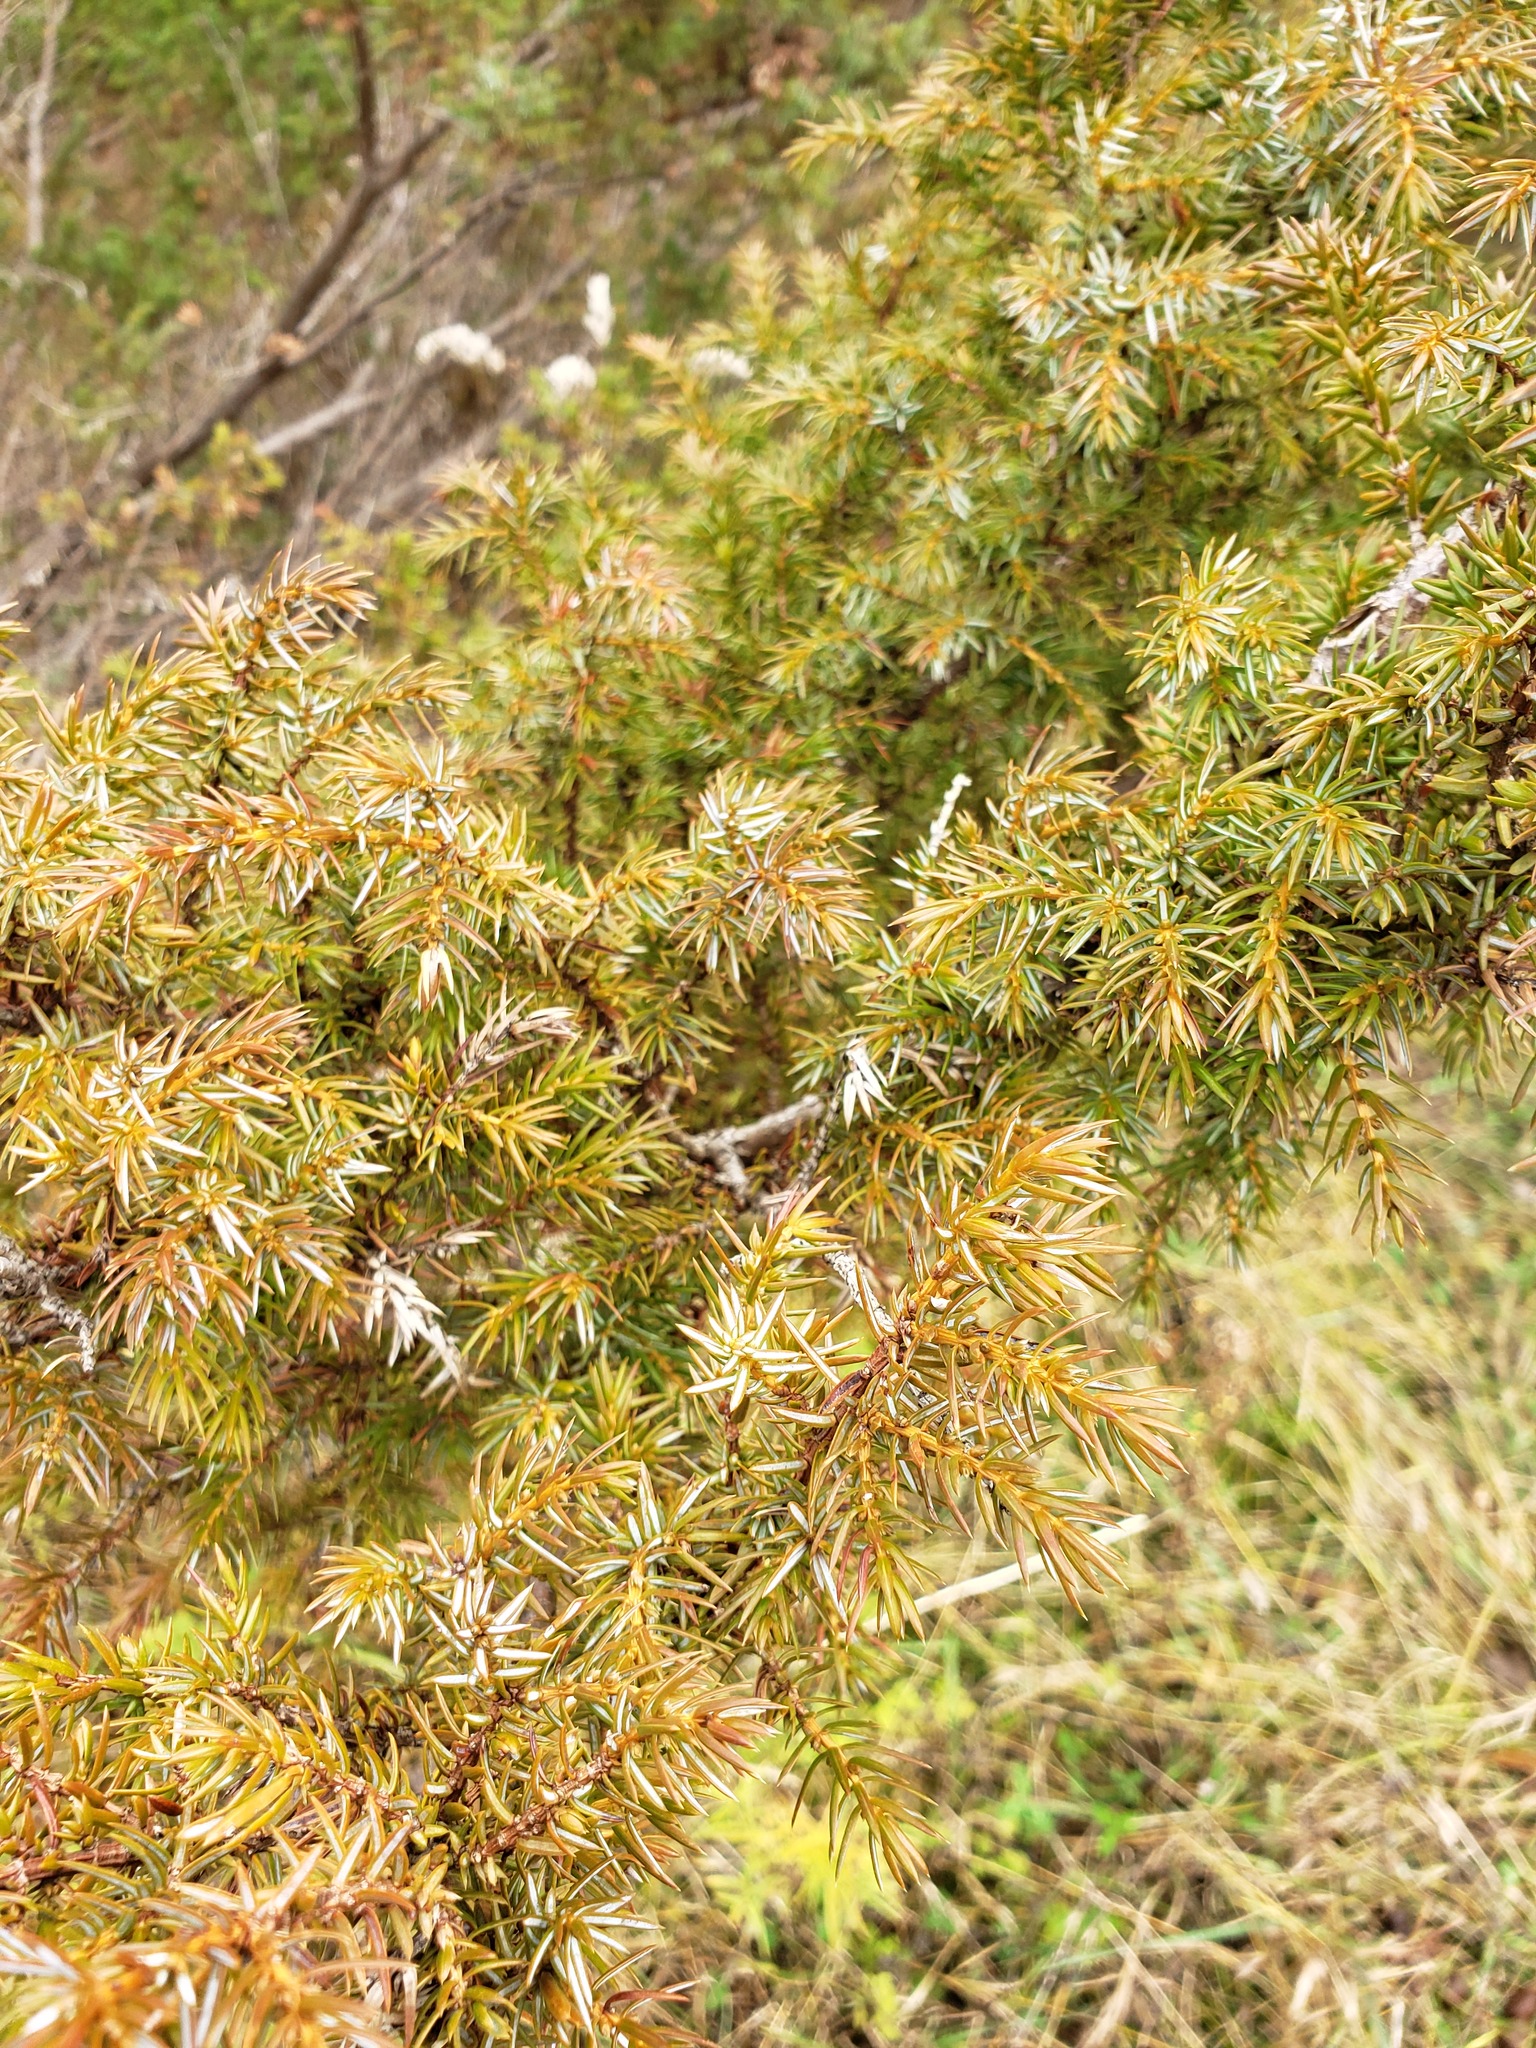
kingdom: Plantae
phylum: Tracheophyta
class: Pinopsida
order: Pinales
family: Cupressaceae
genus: Juniperus
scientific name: Juniperus communis
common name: Common juniper
